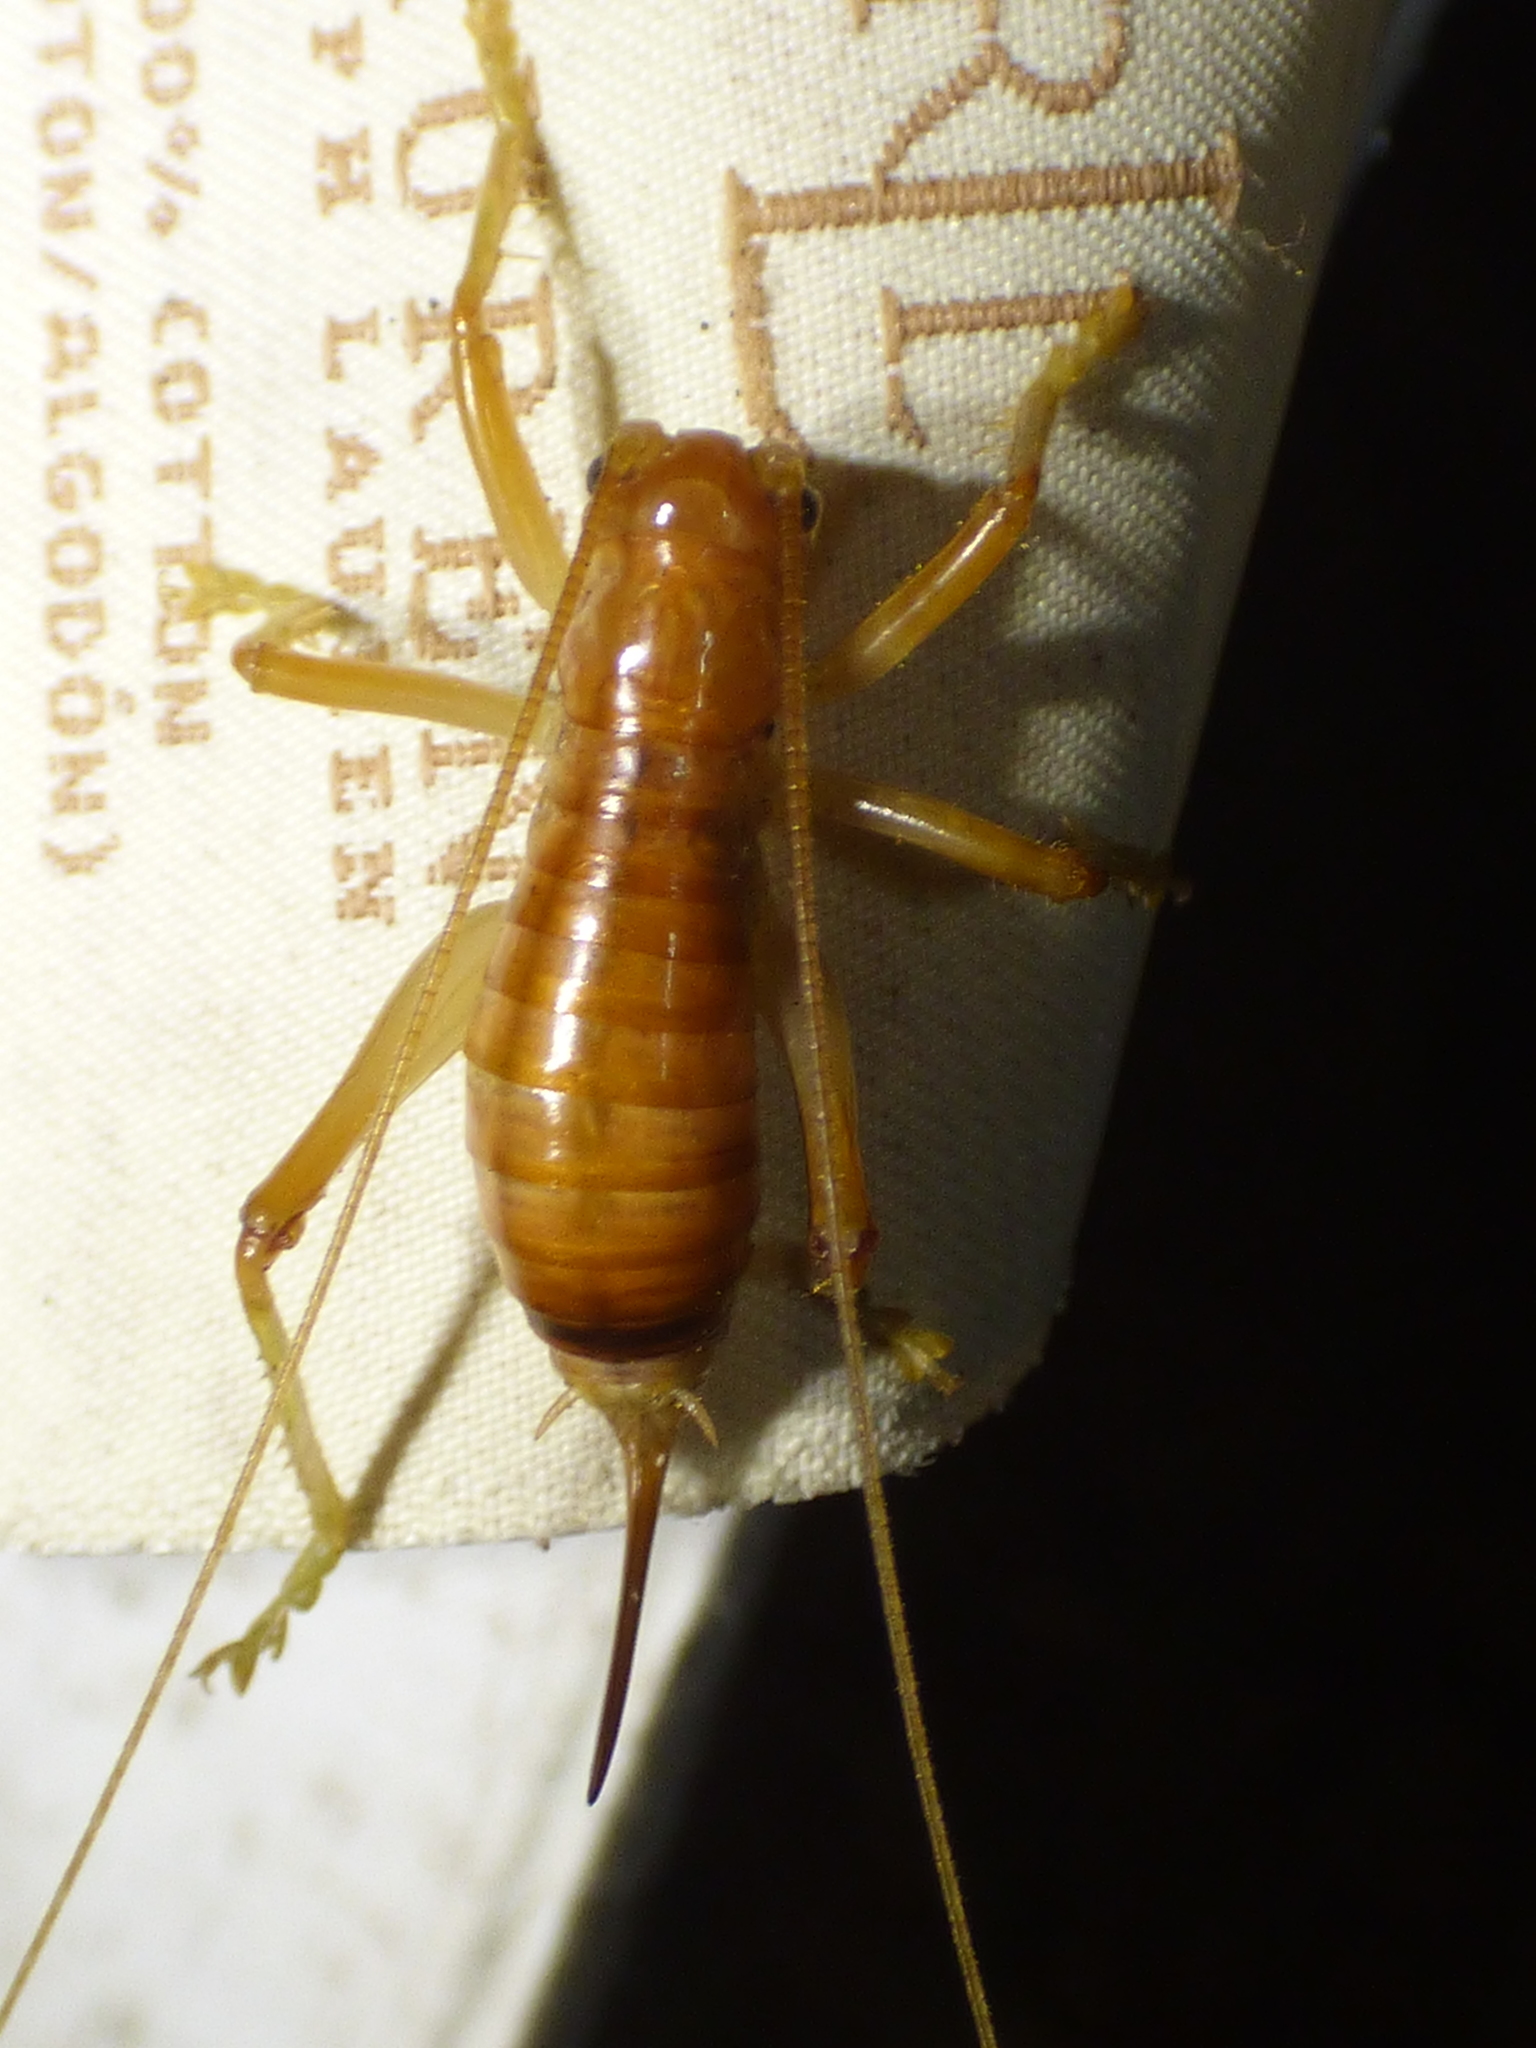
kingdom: Animalia
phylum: Arthropoda
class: Insecta
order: Orthoptera
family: Gryllacrididae
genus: Camptonotus
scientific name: Camptonotus carolinensis
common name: Carolina leaf-roller
